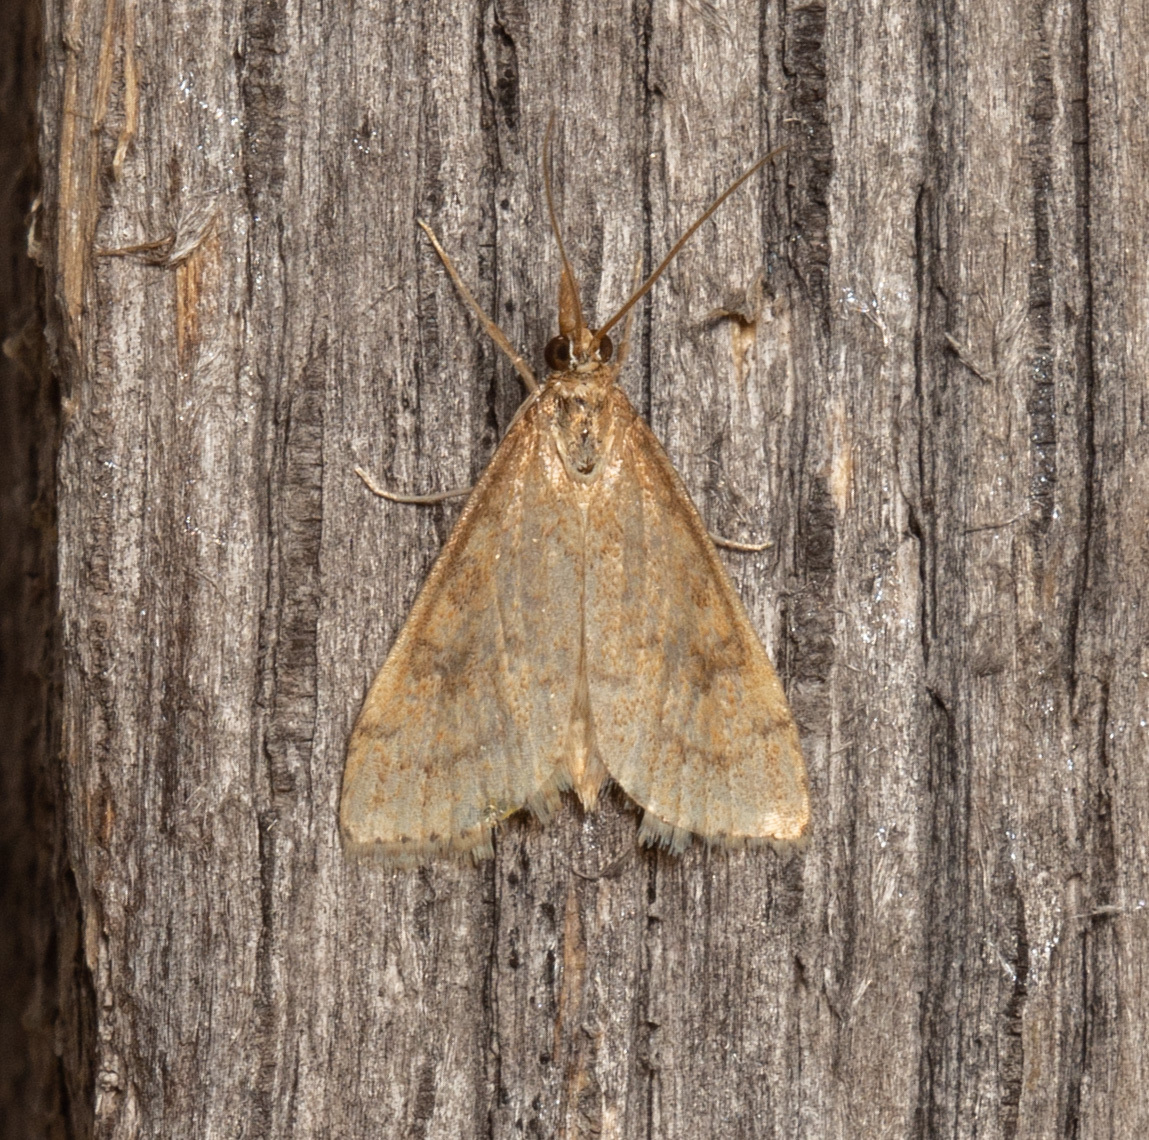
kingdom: Animalia
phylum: Arthropoda
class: Insecta
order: Lepidoptera
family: Crambidae
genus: Udea
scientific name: Udea rubigalis
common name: Celery leaftier moth
